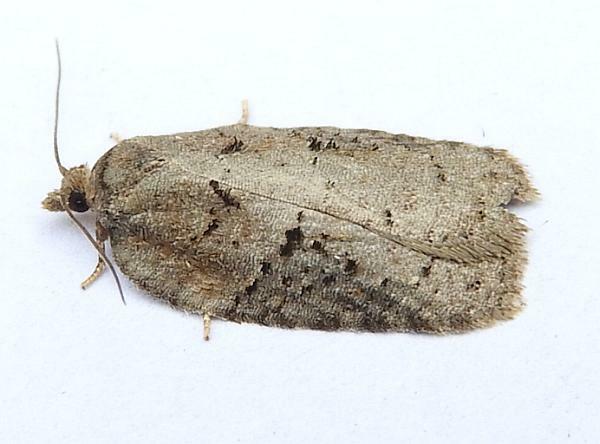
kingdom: Animalia
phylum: Arthropoda
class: Insecta
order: Lepidoptera
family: Tortricidae
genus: Acleris
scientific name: Acleris chalybeana
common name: Lesser maple leafroller
